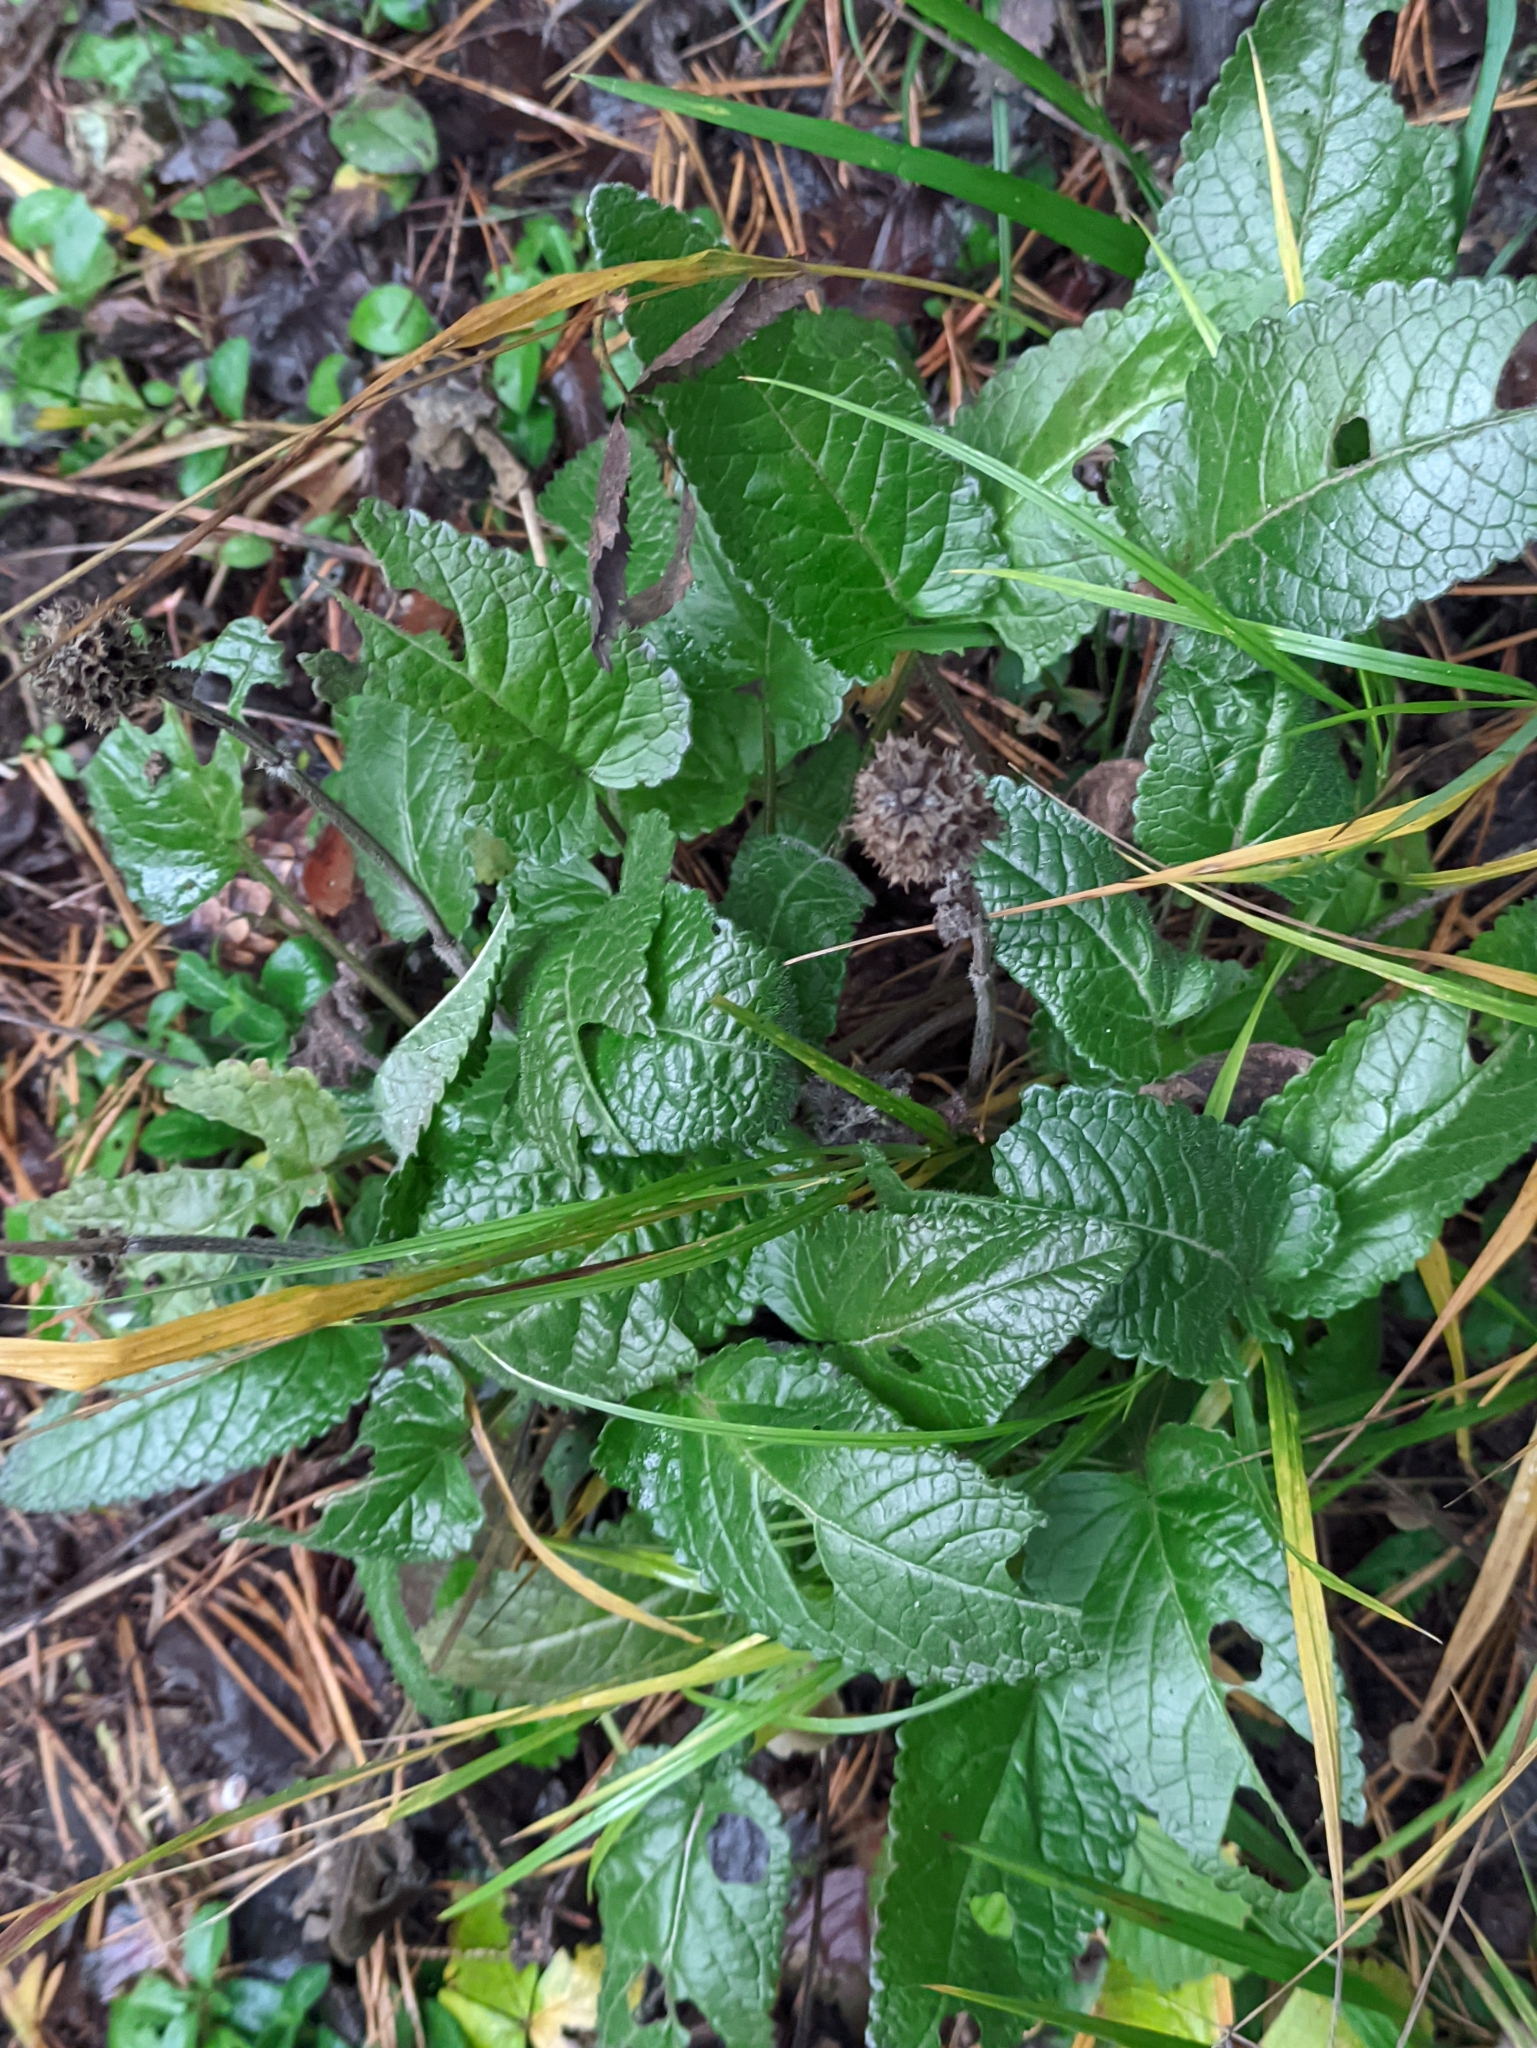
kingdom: Plantae
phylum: Tracheophyta
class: Magnoliopsida
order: Lamiales
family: Lamiaceae
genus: Betonica
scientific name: Betonica officinalis
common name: Bishop's-wort
